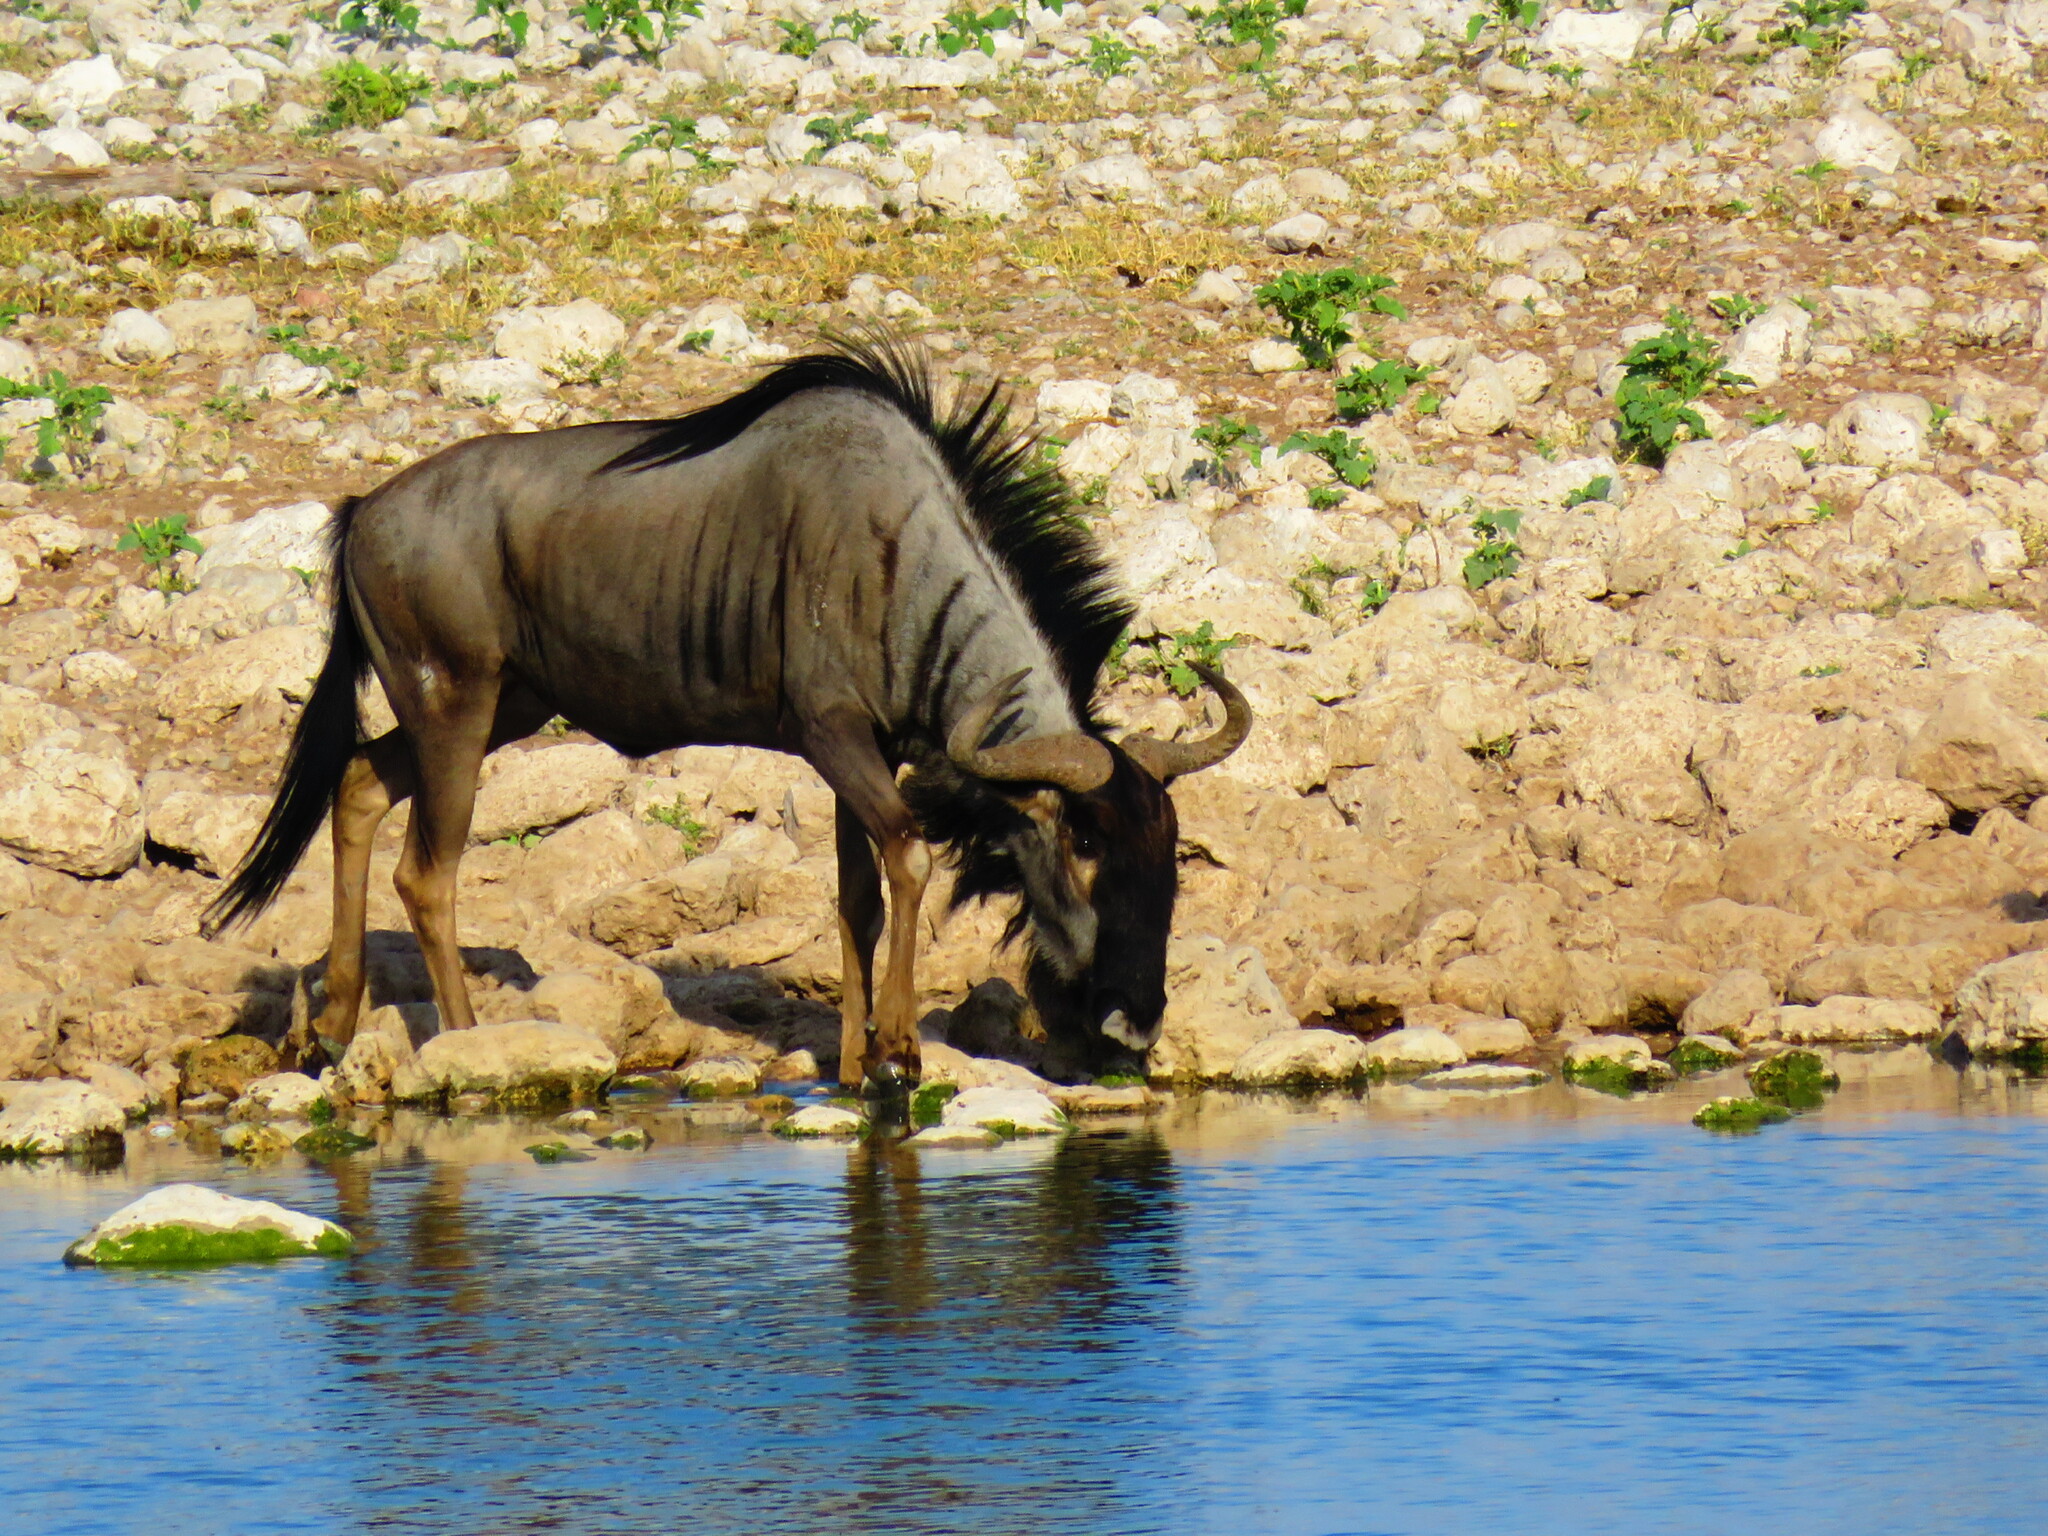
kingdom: Animalia
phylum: Chordata
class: Mammalia
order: Artiodactyla
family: Bovidae
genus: Connochaetes
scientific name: Connochaetes taurinus
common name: Blue wildebeest
